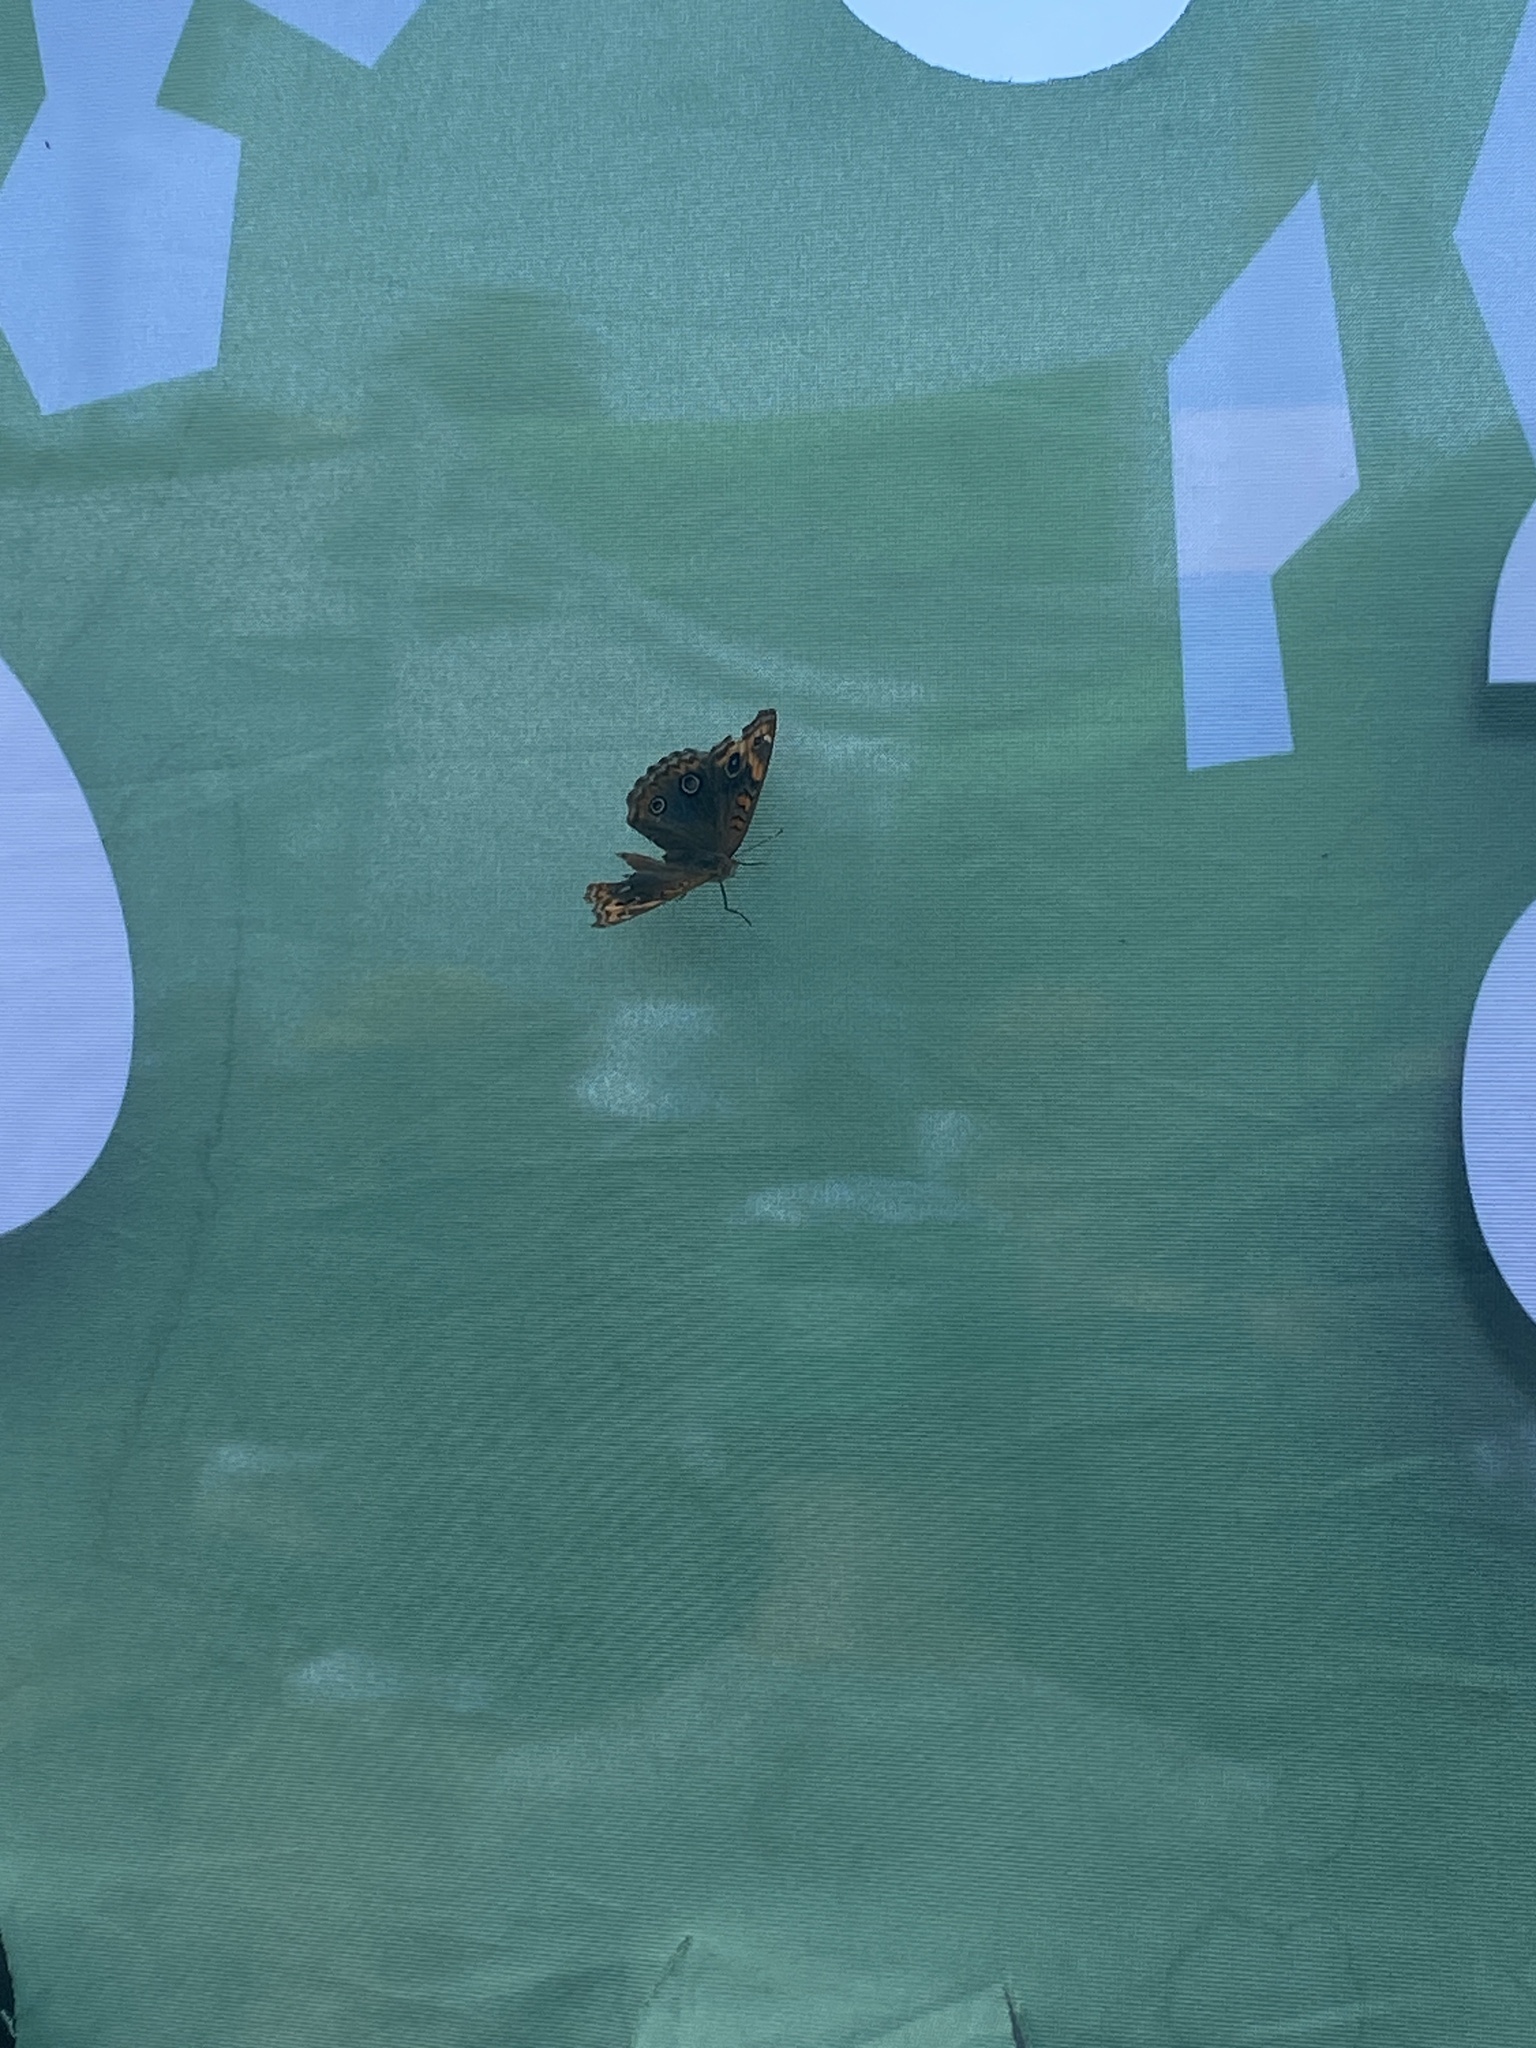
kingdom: Animalia
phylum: Arthropoda
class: Insecta
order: Lepidoptera
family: Nymphalidae
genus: Junonia
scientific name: Junonia lavinia
